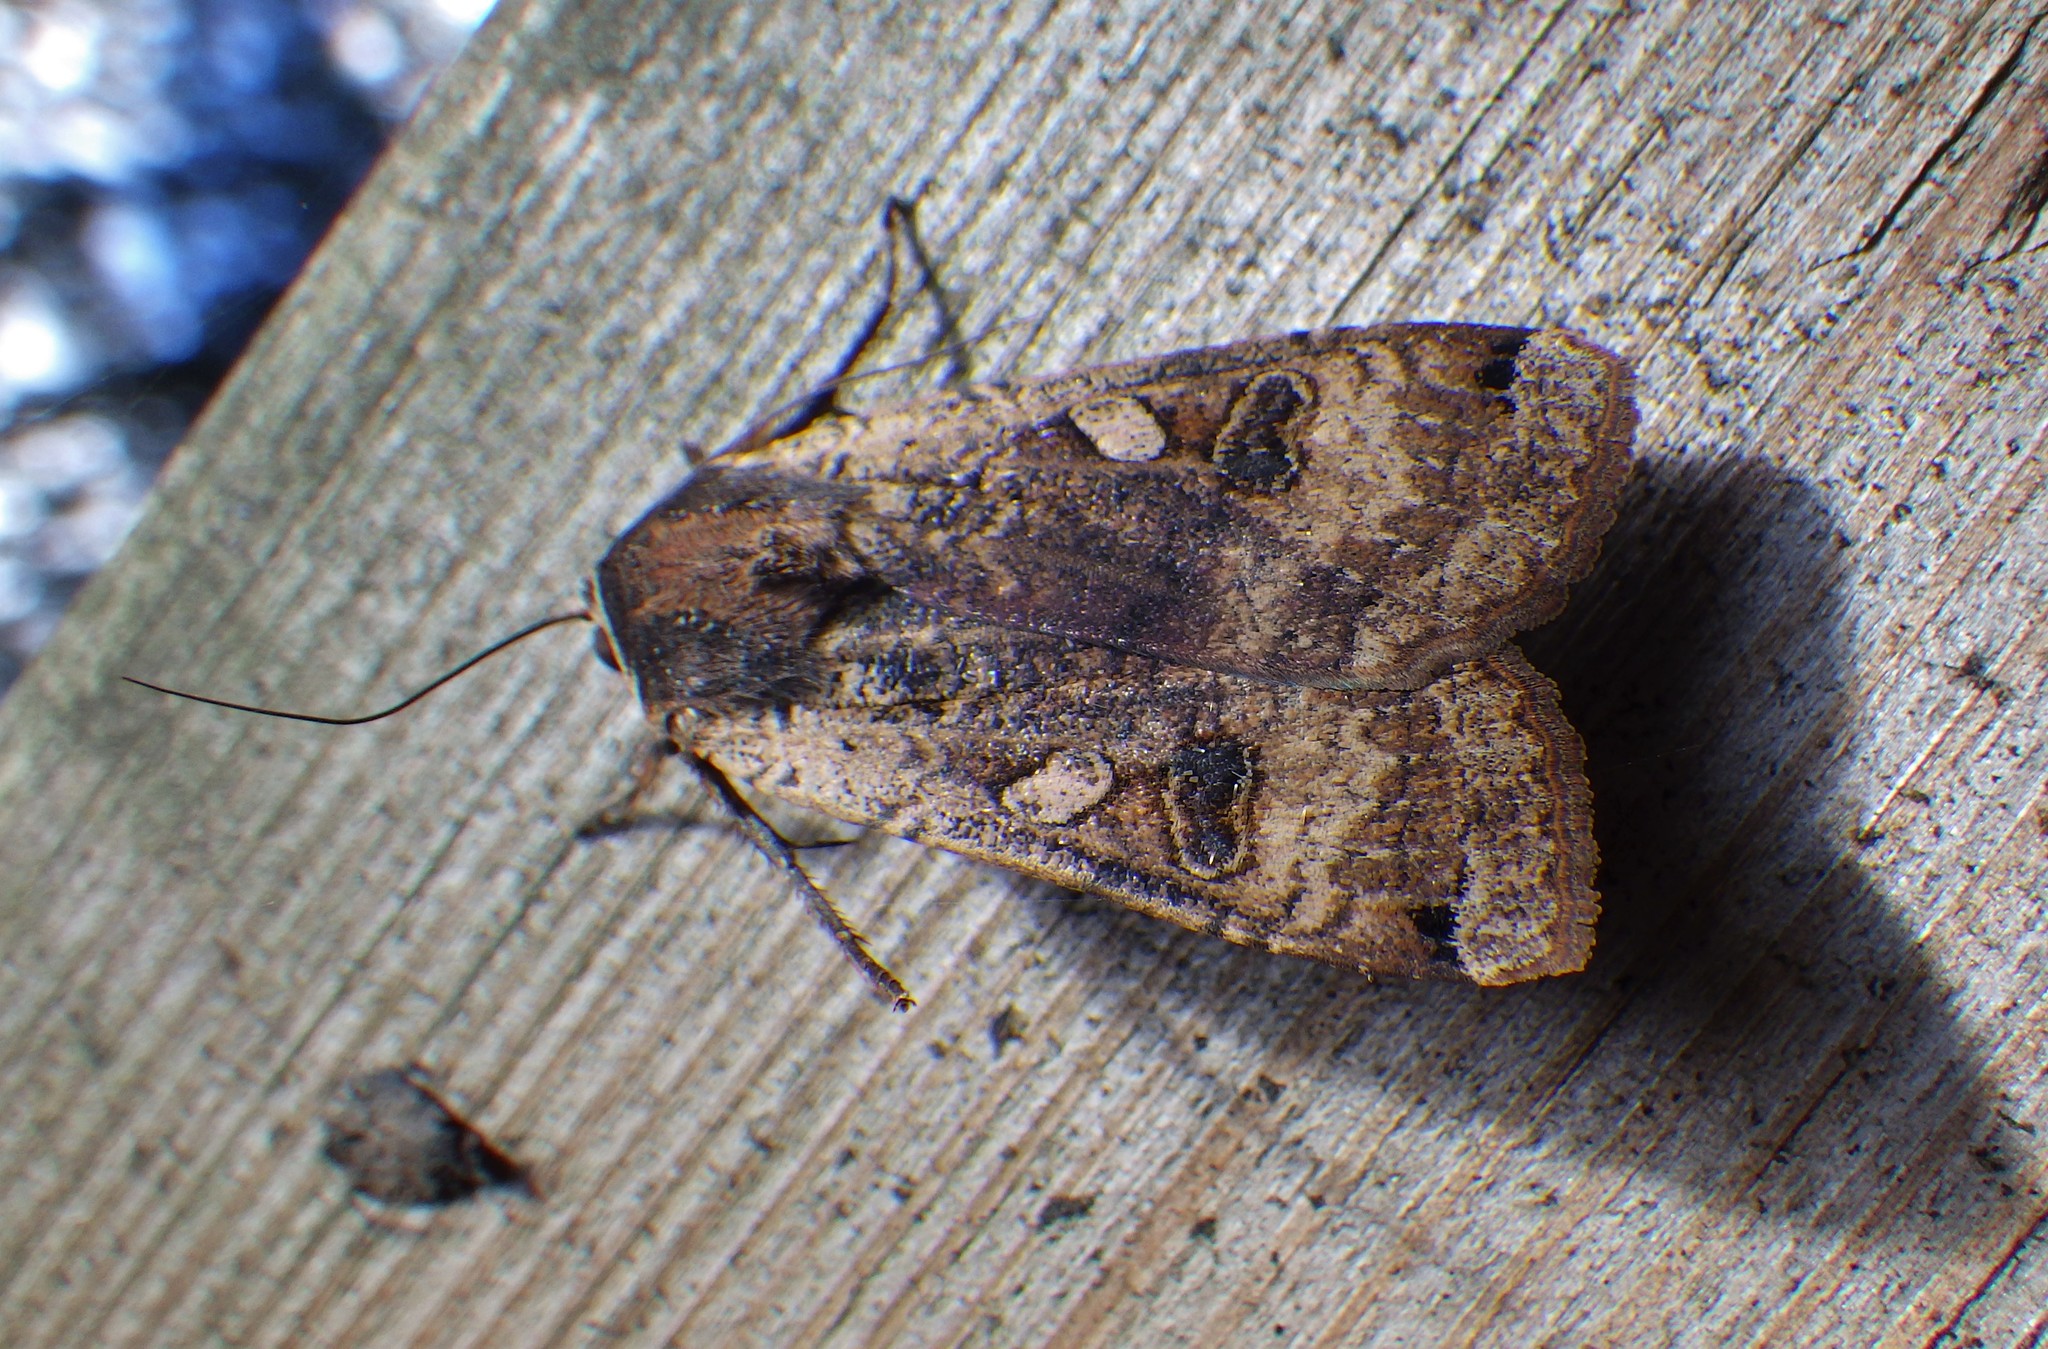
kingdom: Animalia
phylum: Arthropoda
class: Insecta
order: Lepidoptera
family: Noctuidae
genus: Noctua
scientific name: Noctua pronuba
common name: Large yellow underwing
